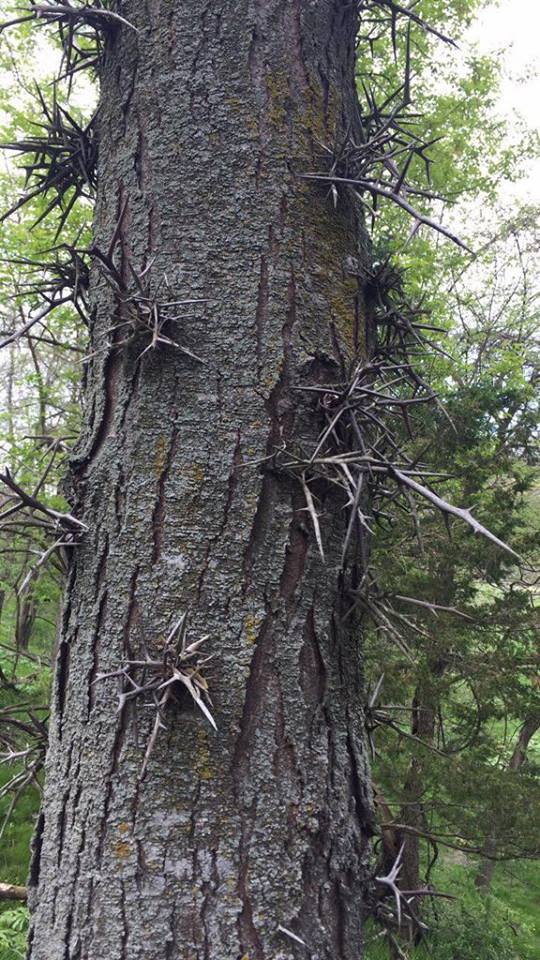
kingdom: Plantae
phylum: Tracheophyta
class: Magnoliopsida
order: Fabales
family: Fabaceae
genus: Gleditsia
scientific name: Gleditsia triacanthos
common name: Common honeylocust
